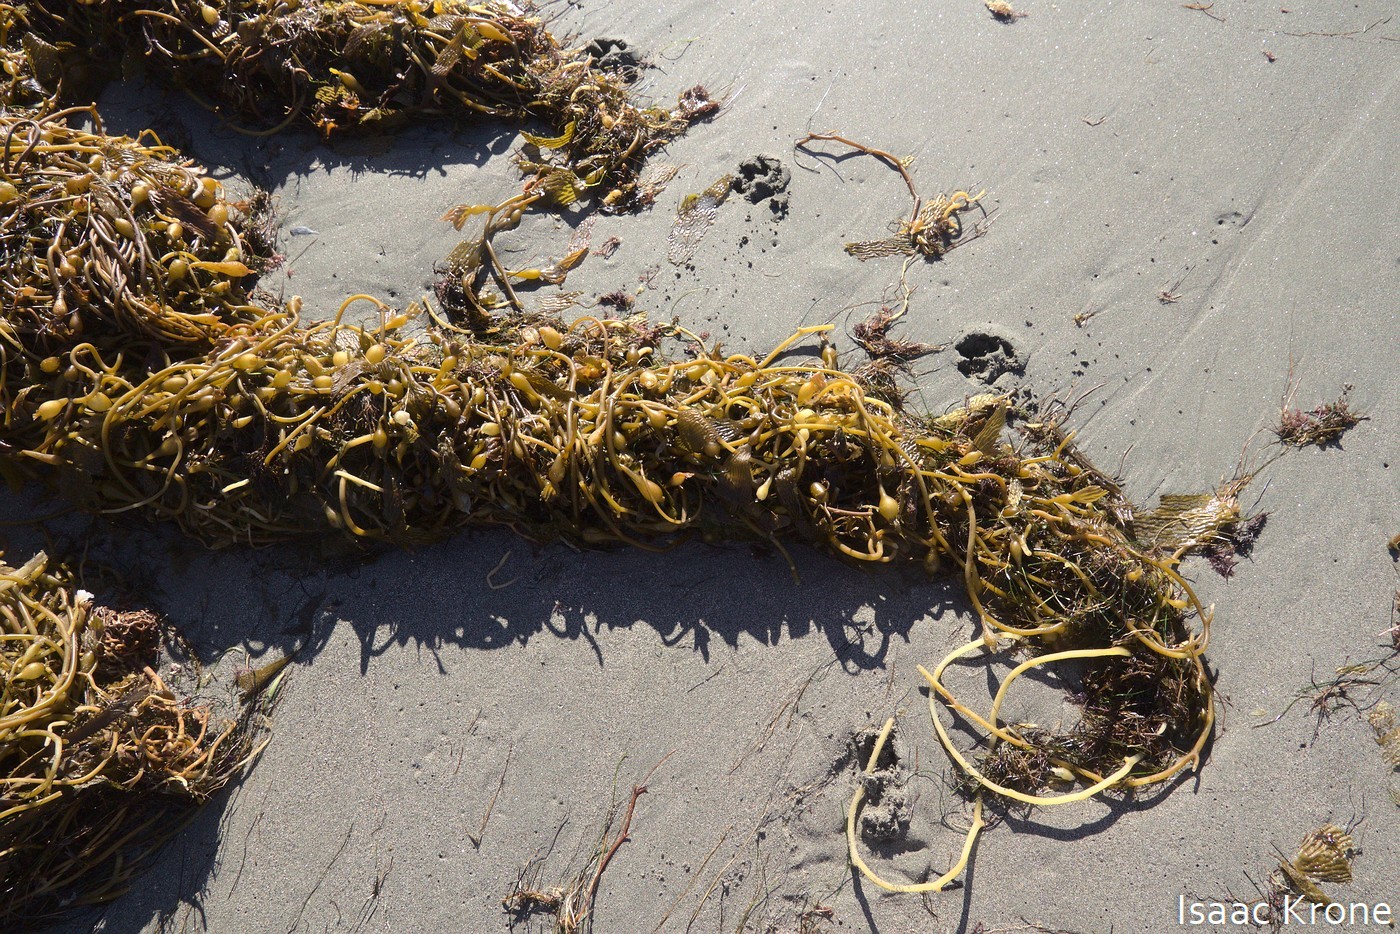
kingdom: Chromista
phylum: Ochrophyta
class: Phaeophyceae
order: Laminariales
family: Laminariaceae
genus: Macrocystis
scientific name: Macrocystis pyrifera
